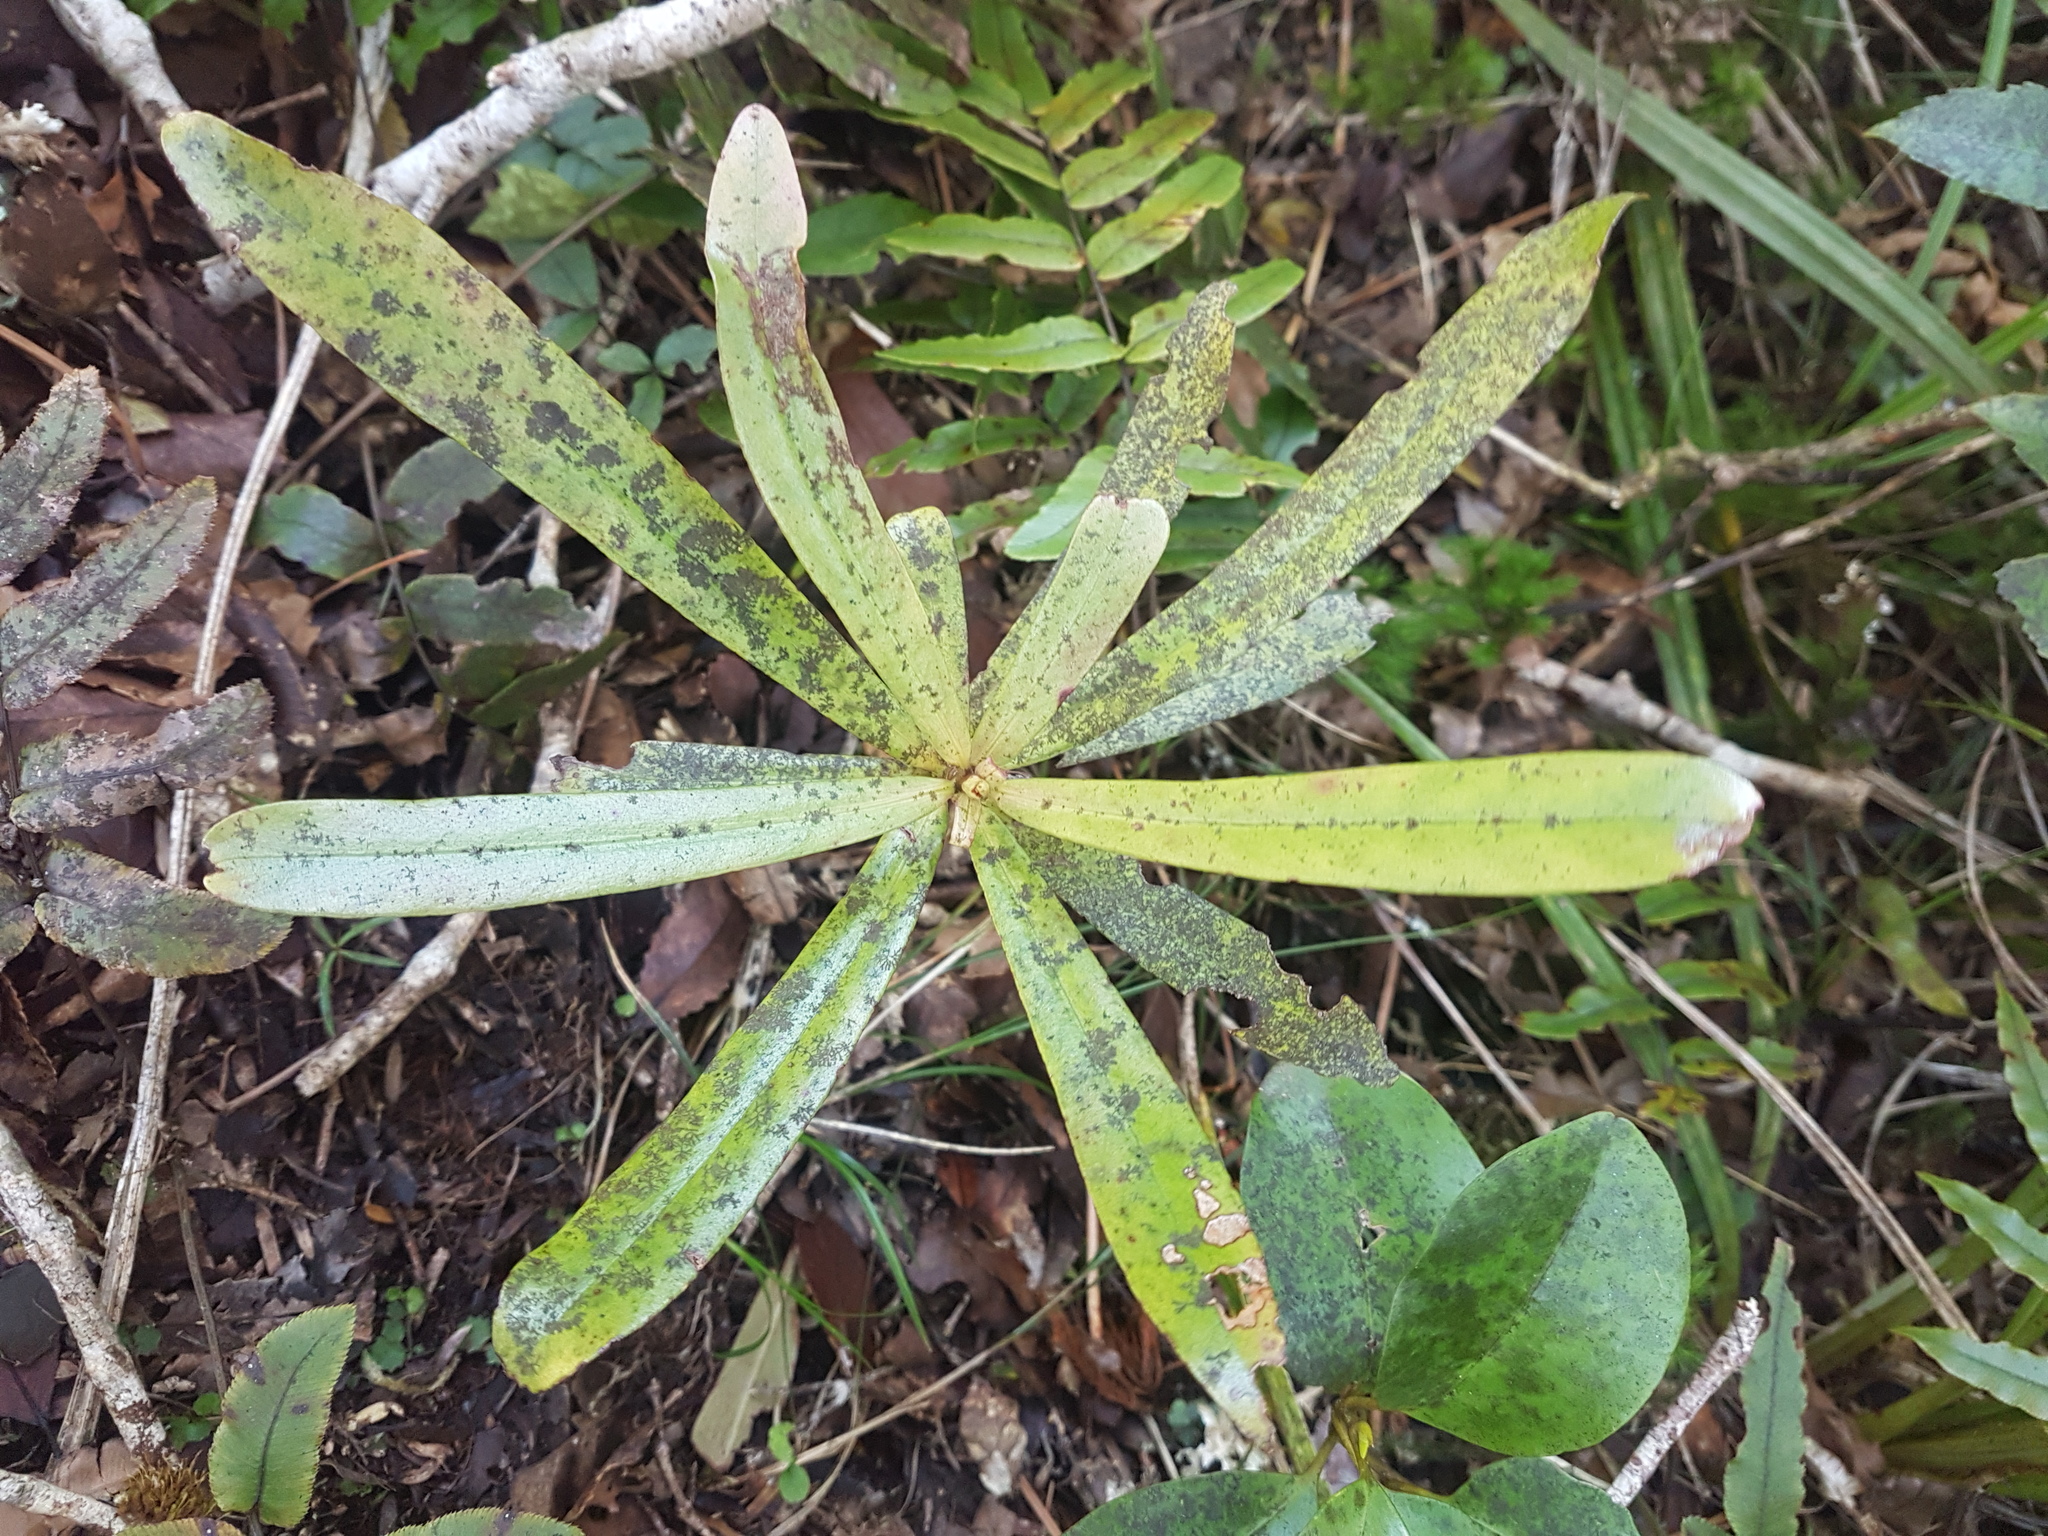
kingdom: Plantae
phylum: Tracheophyta
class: Magnoliopsida
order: Ericales
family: Primulaceae
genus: Myrsine
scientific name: Myrsine salicina
